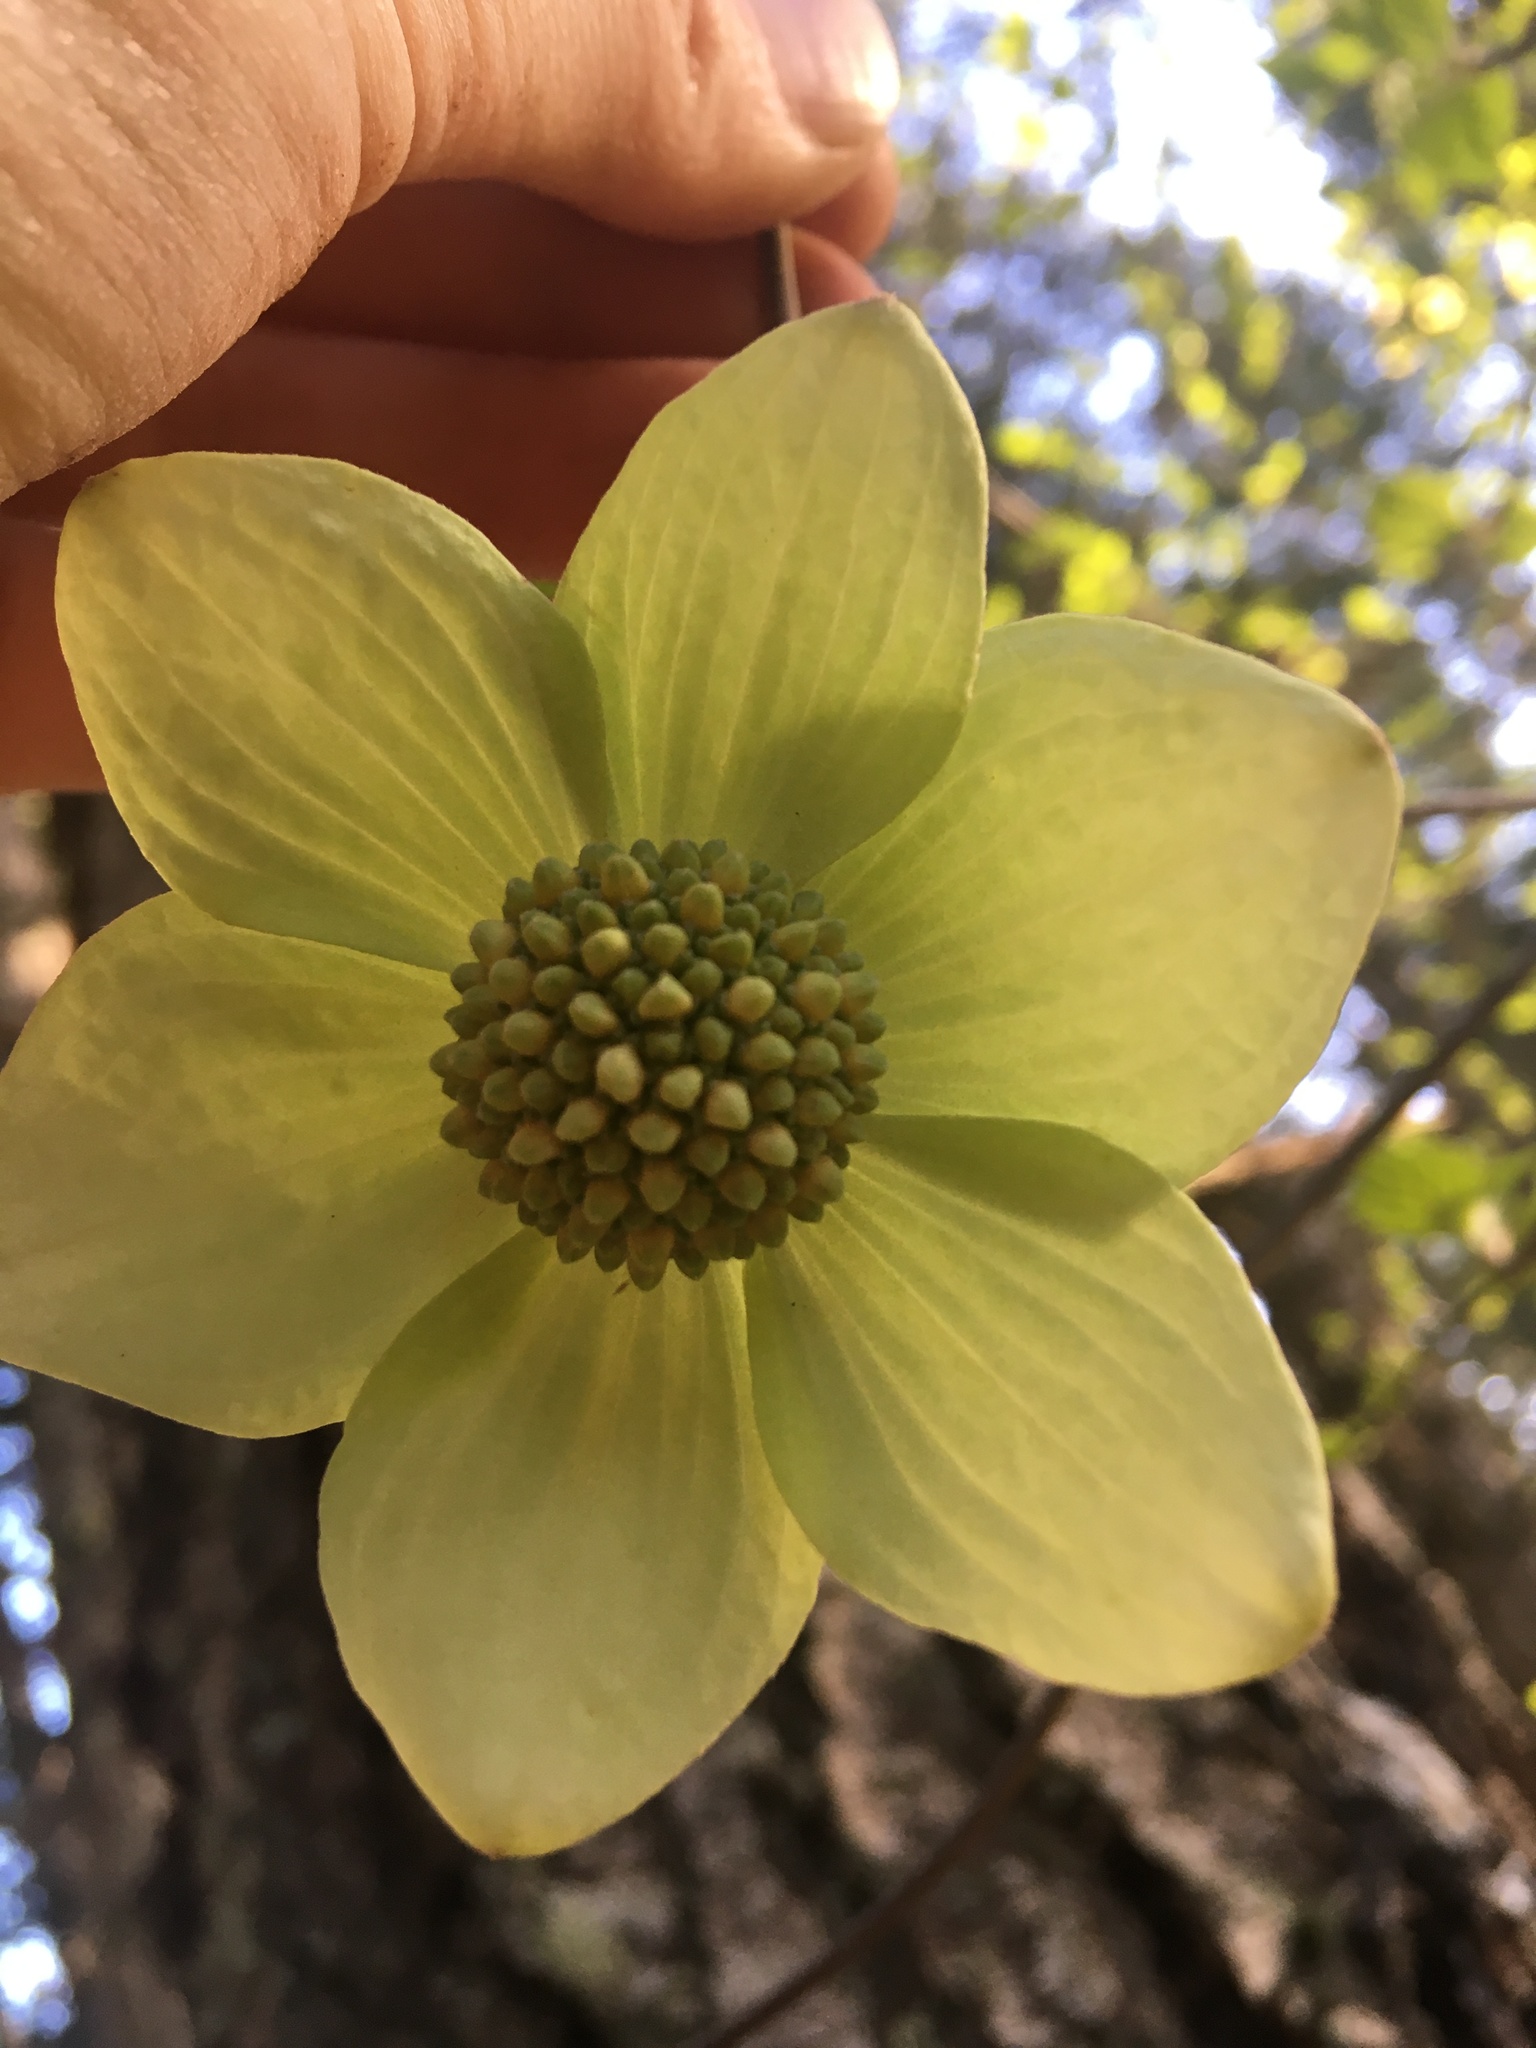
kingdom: Plantae
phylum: Tracheophyta
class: Magnoliopsida
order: Cornales
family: Cornaceae
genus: Cornus
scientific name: Cornus nuttallii
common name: Pacific dogwood
